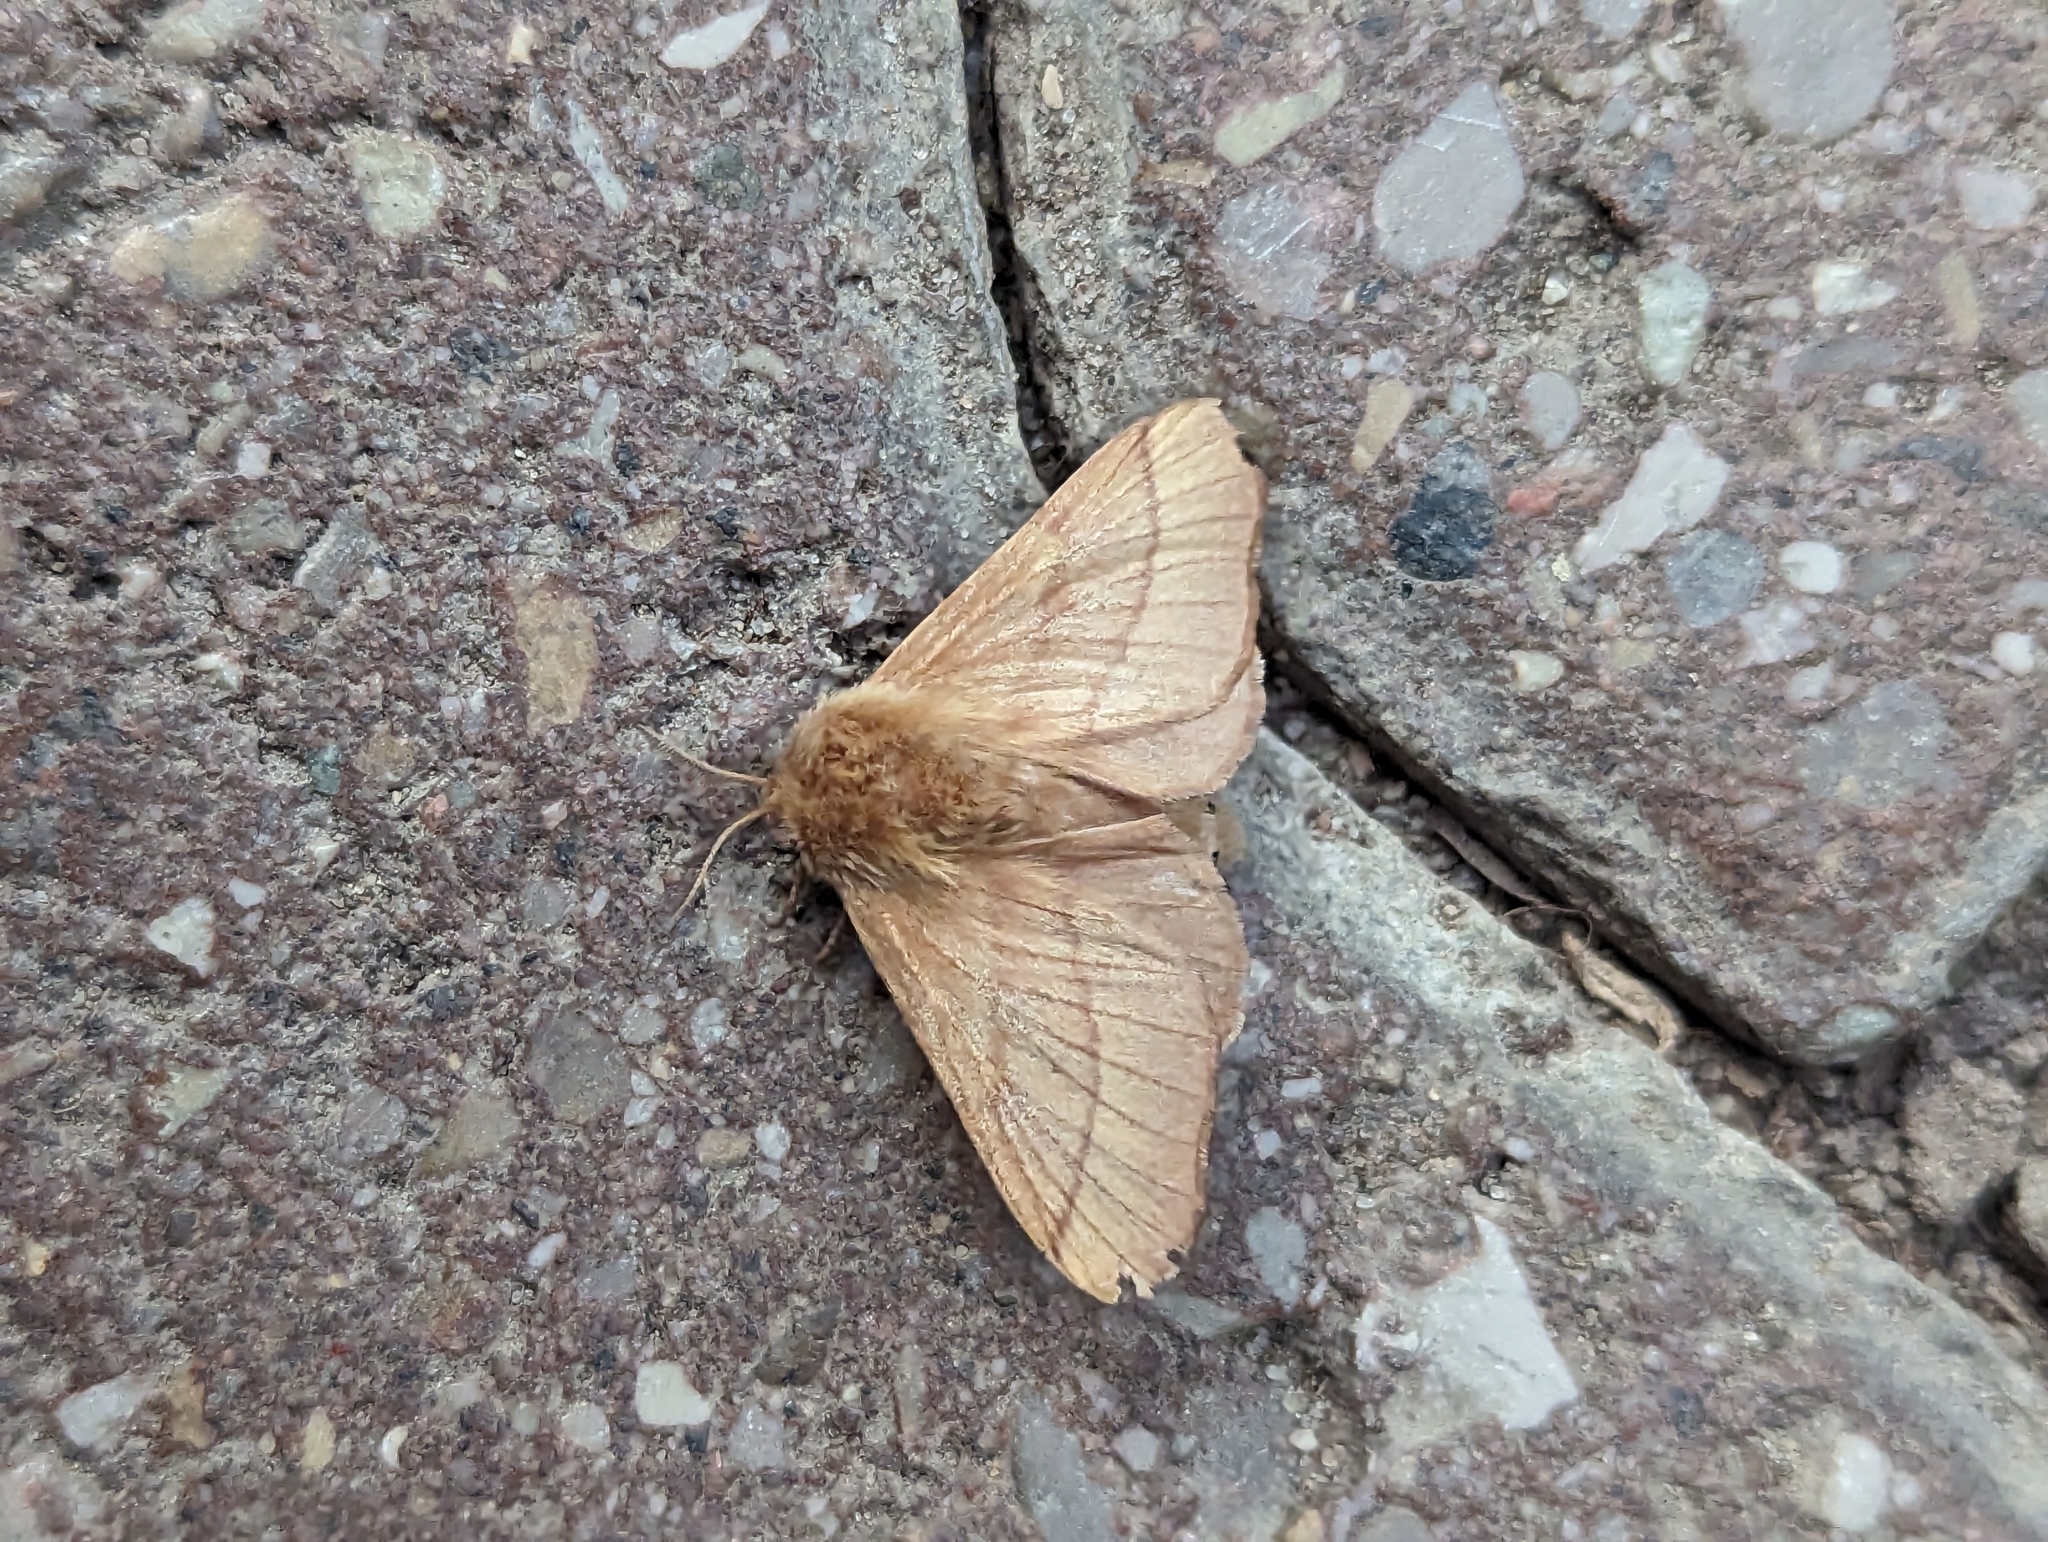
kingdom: Animalia
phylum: Arthropoda
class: Insecta
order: Lepidoptera
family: Lasiocampidae
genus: Malacosoma
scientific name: Malacosoma disstria
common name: Forest tent caterpillar
